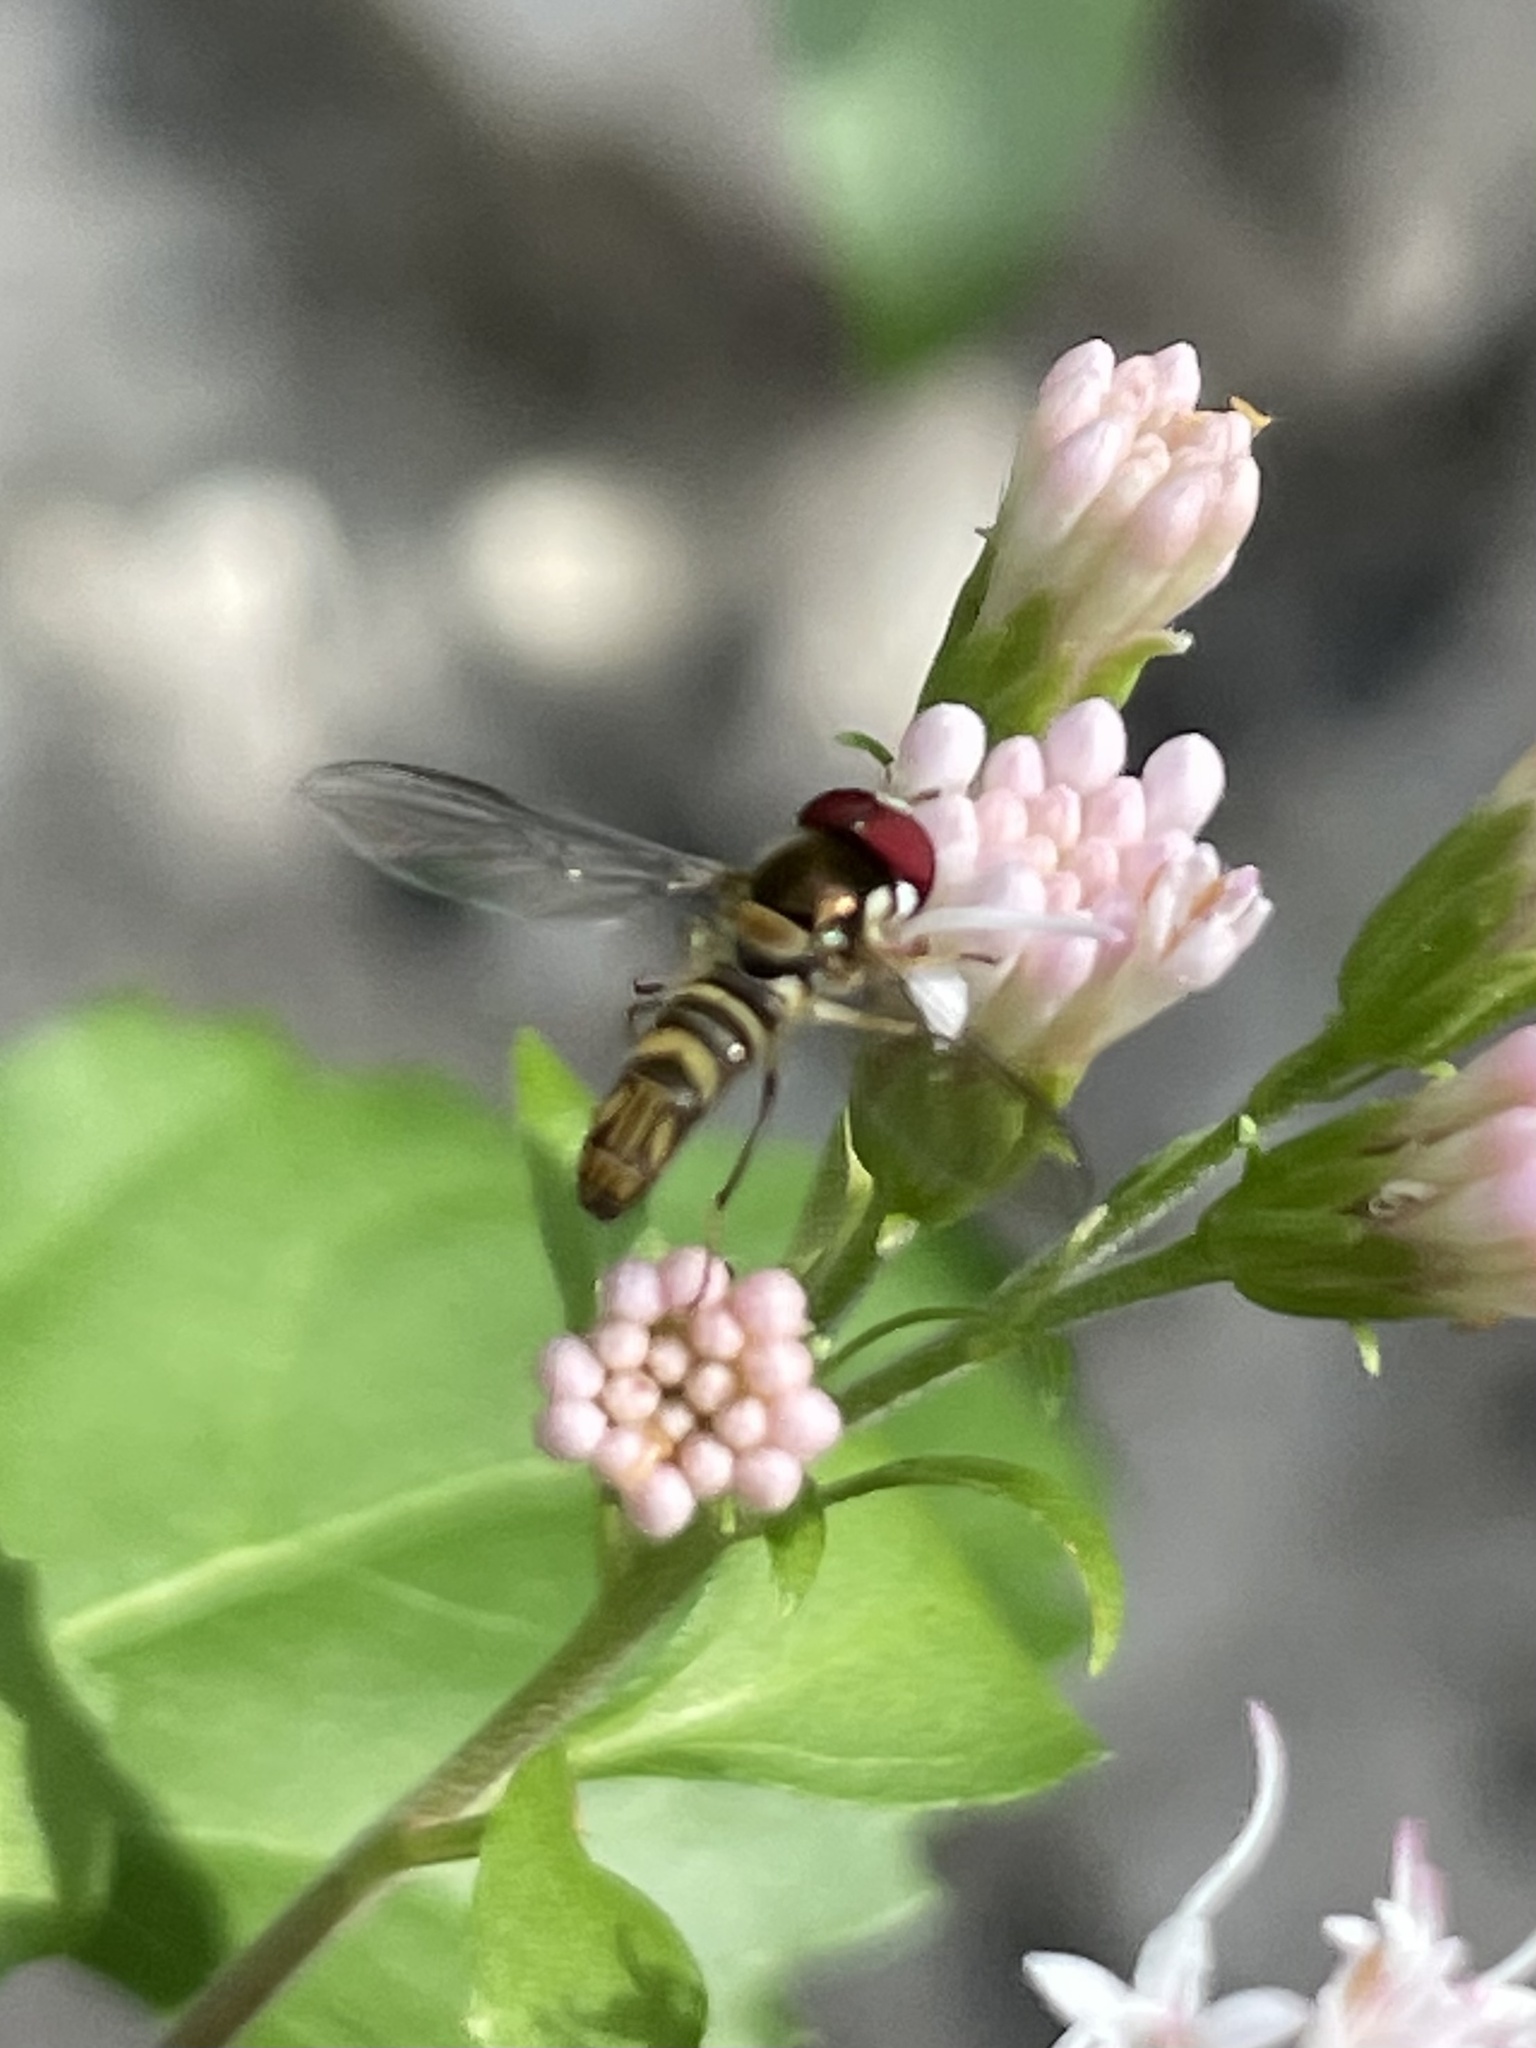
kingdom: Animalia
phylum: Arthropoda
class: Insecta
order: Diptera
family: Syrphidae
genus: Allograpta
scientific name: Allograpta obliqua
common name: Common oblique syrphid
